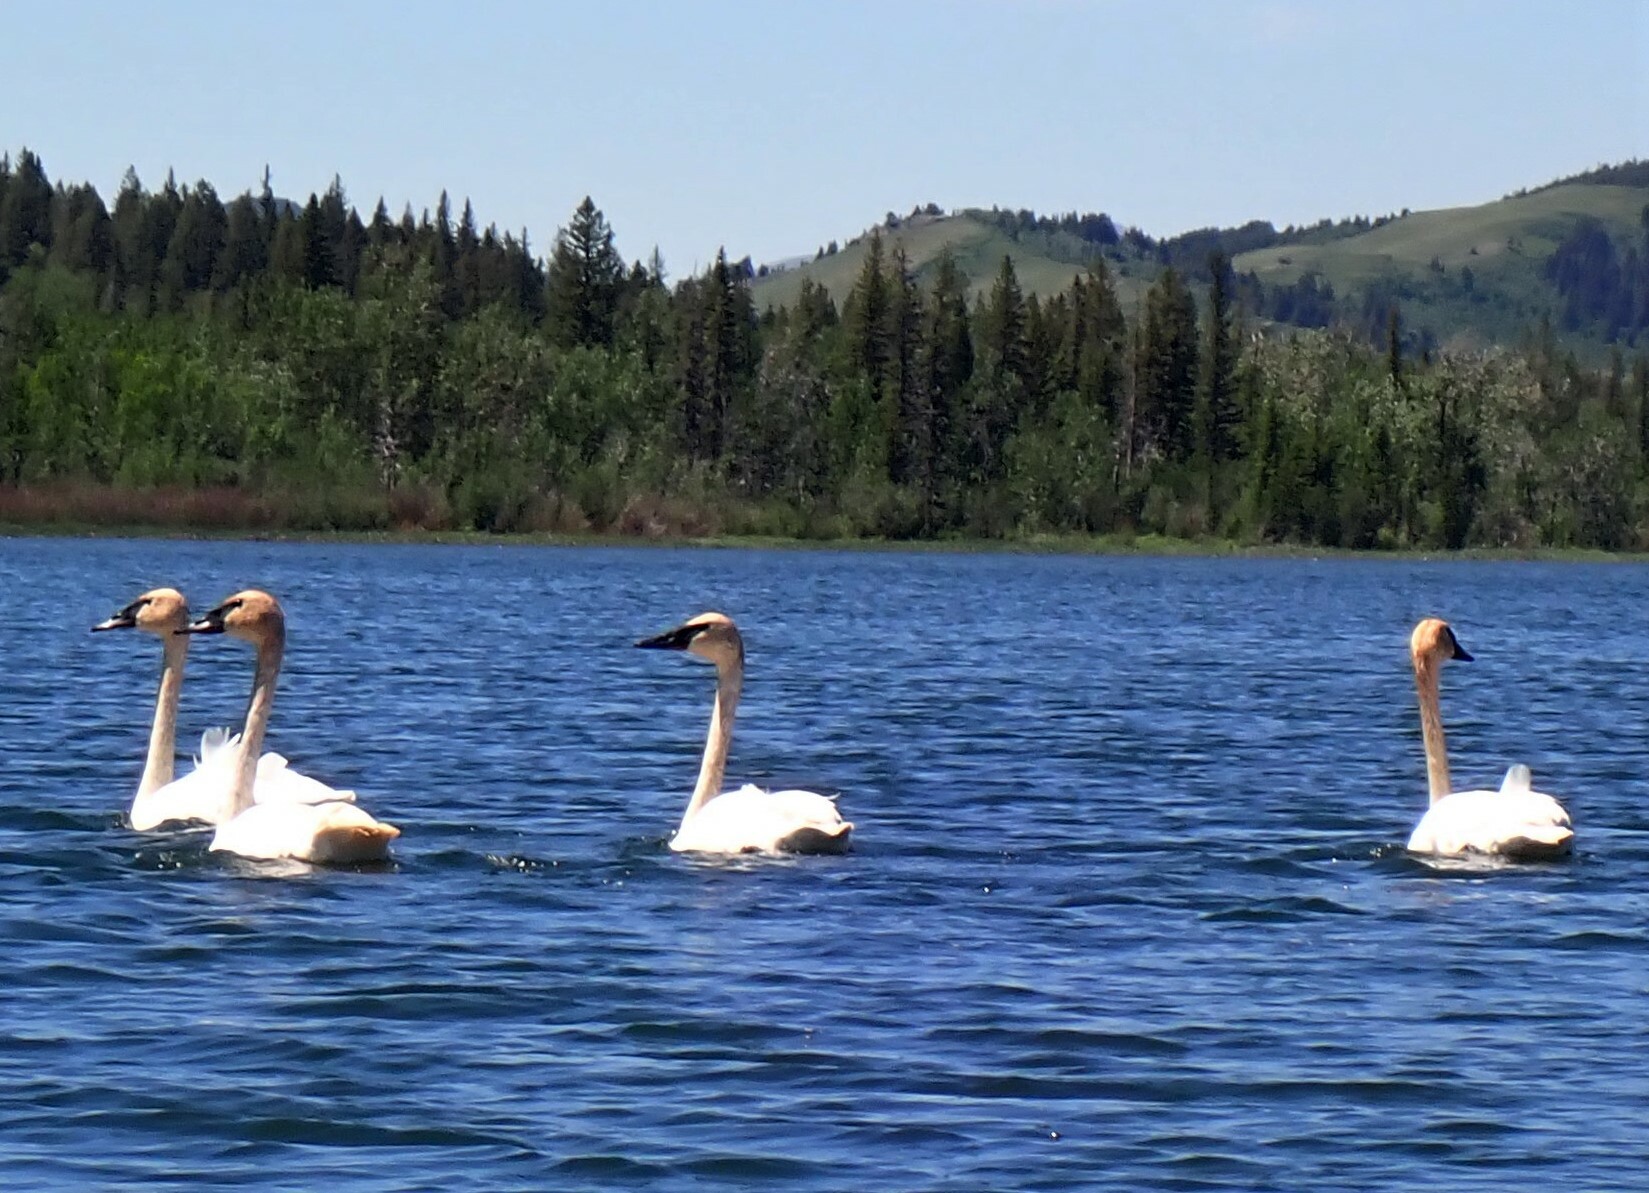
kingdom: Animalia
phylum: Chordata
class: Aves
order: Anseriformes
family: Anatidae
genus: Cygnus
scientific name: Cygnus buccinator
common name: Trumpeter swan
